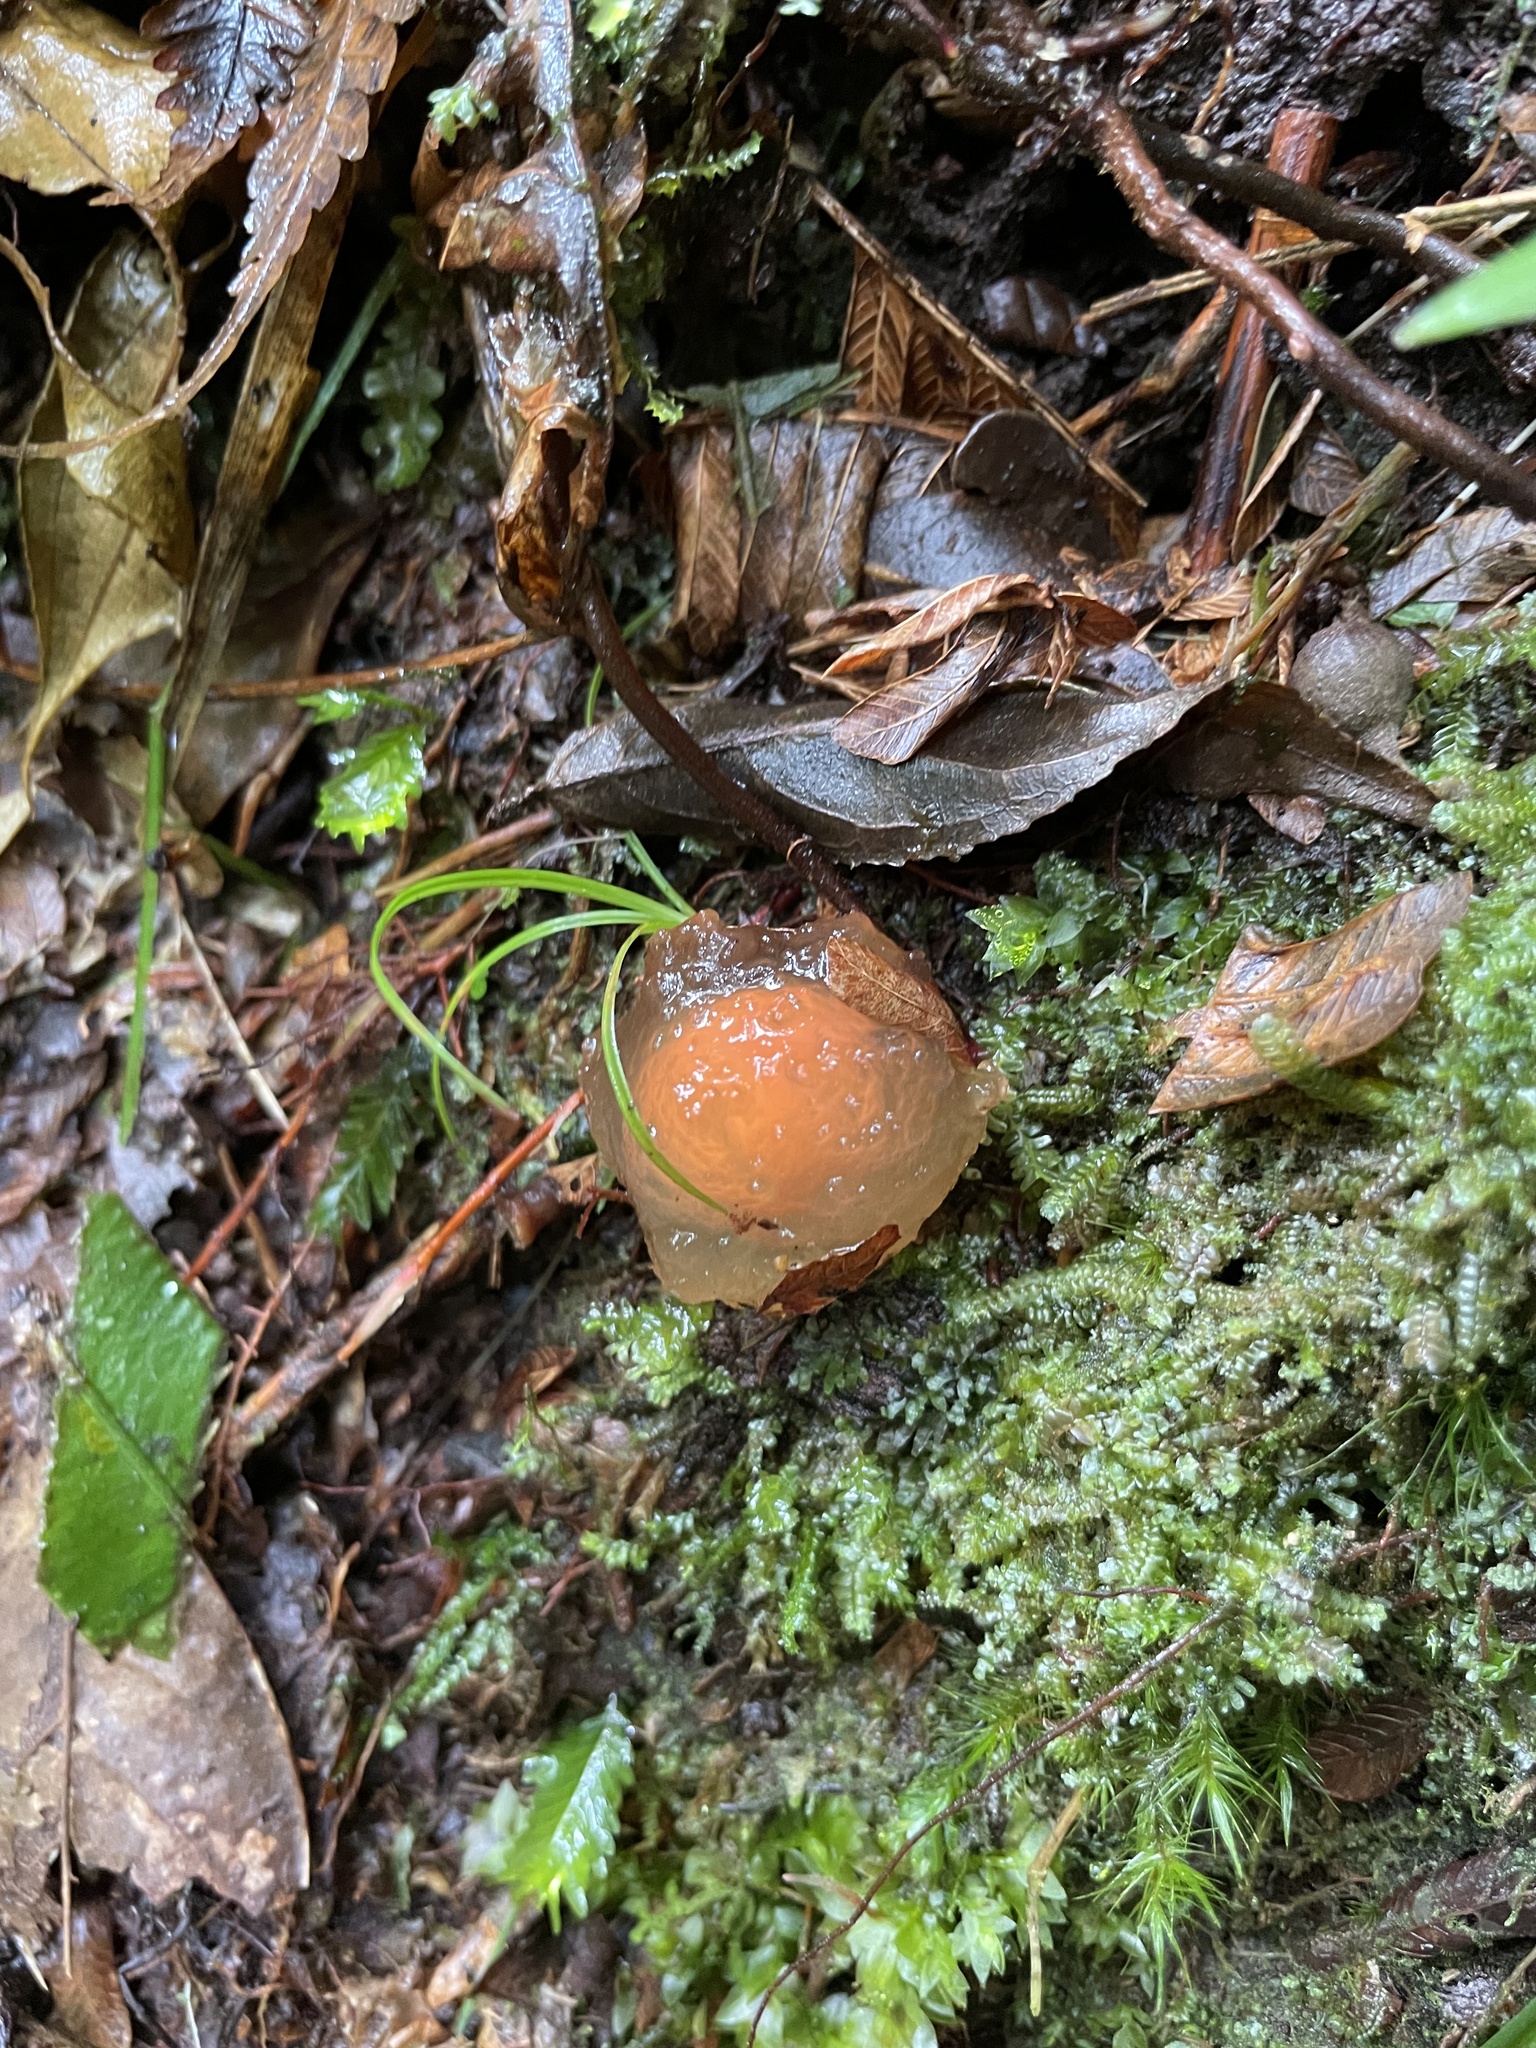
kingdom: Fungi
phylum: Basidiomycota
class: Agaricomycetes
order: Boletales
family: Calostomataceae
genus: Calostoma
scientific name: Calostoma cinnabarinum
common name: Stalked puffball-in-aspic
